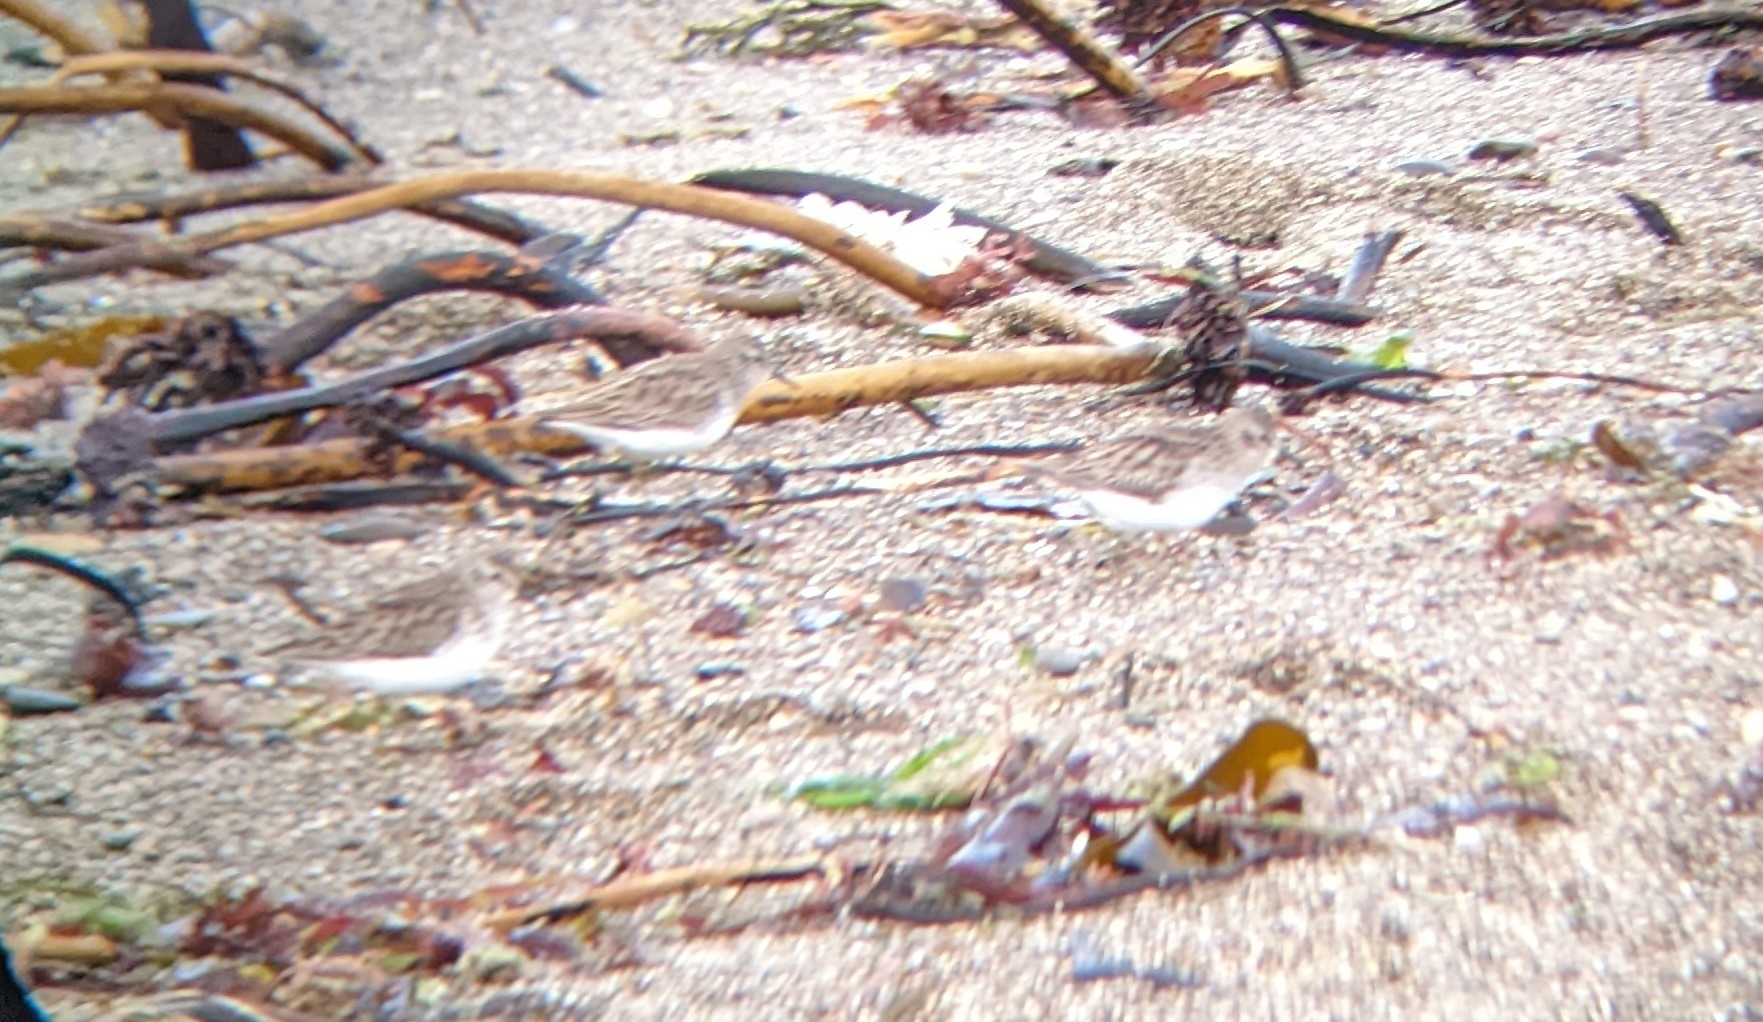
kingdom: Animalia
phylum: Chordata
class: Aves
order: Charadriiformes
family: Scolopacidae
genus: Calidris
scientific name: Calidris minutilla
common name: Least sandpiper
